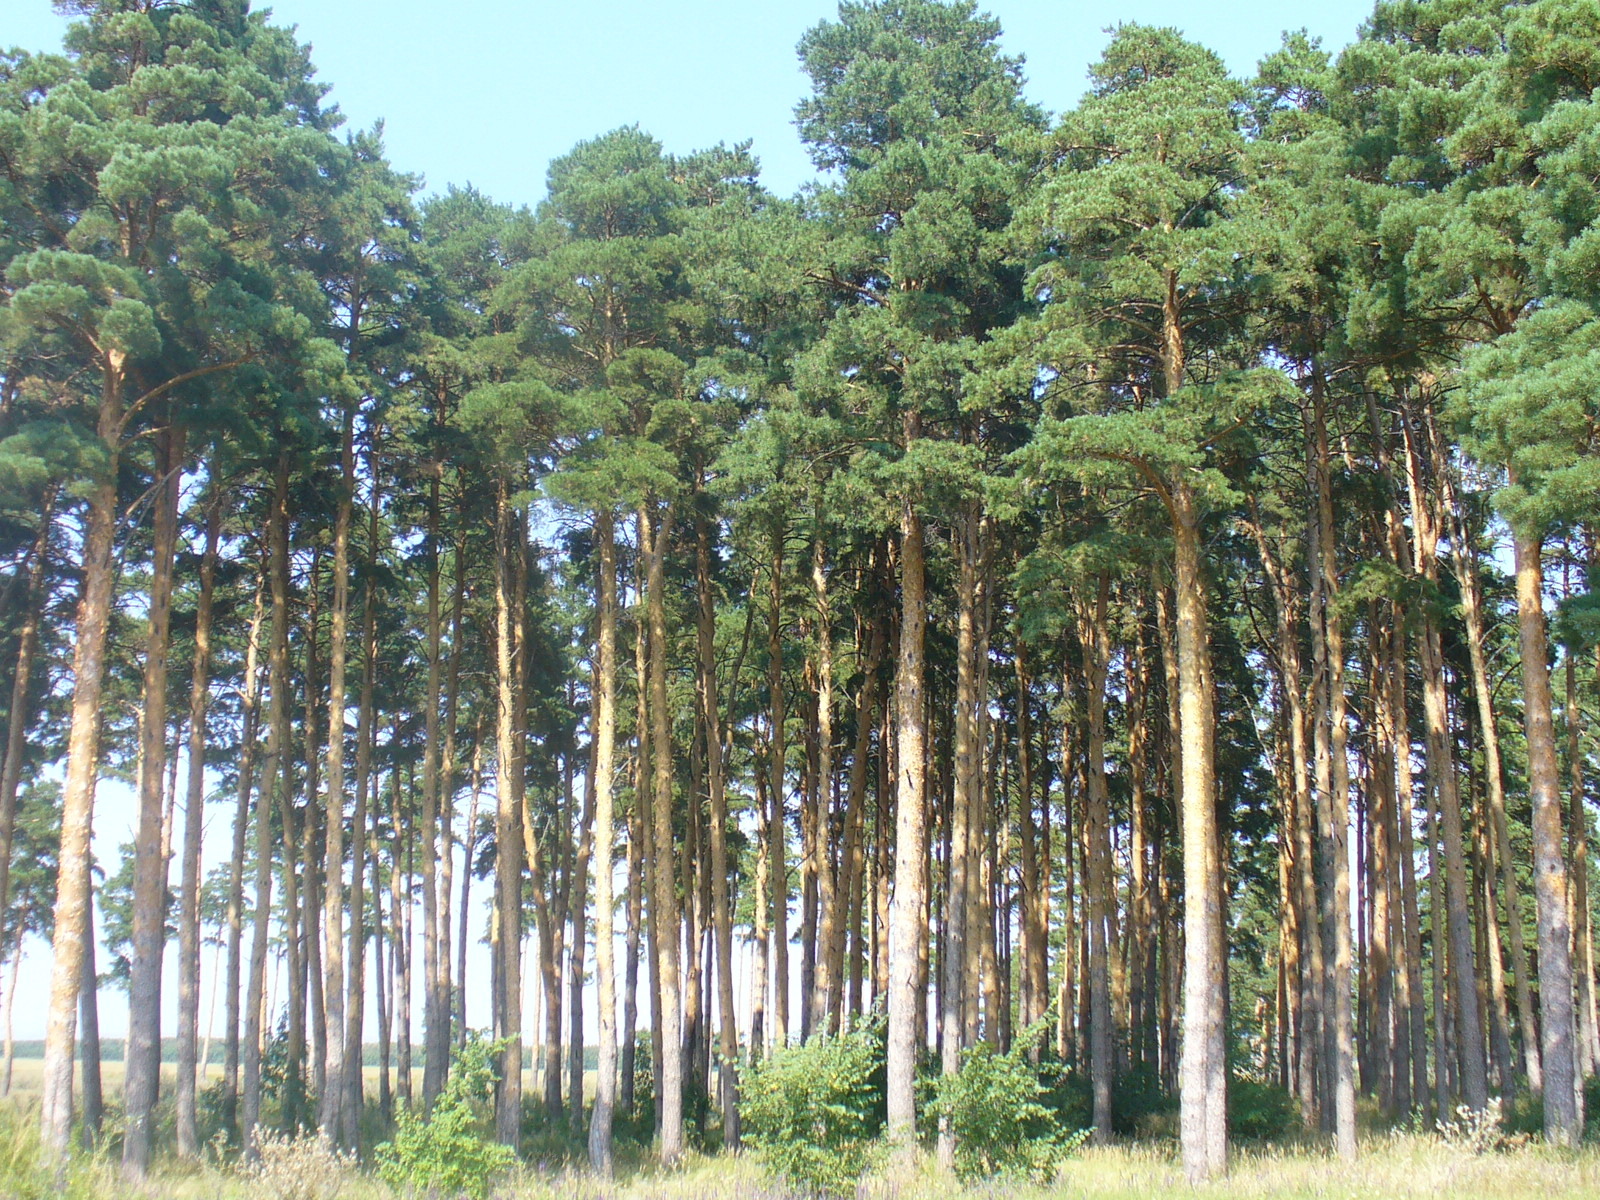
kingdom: Plantae
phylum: Tracheophyta
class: Pinopsida
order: Pinales
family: Pinaceae
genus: Pinus
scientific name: Pinus sylvestris
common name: Scots pine
